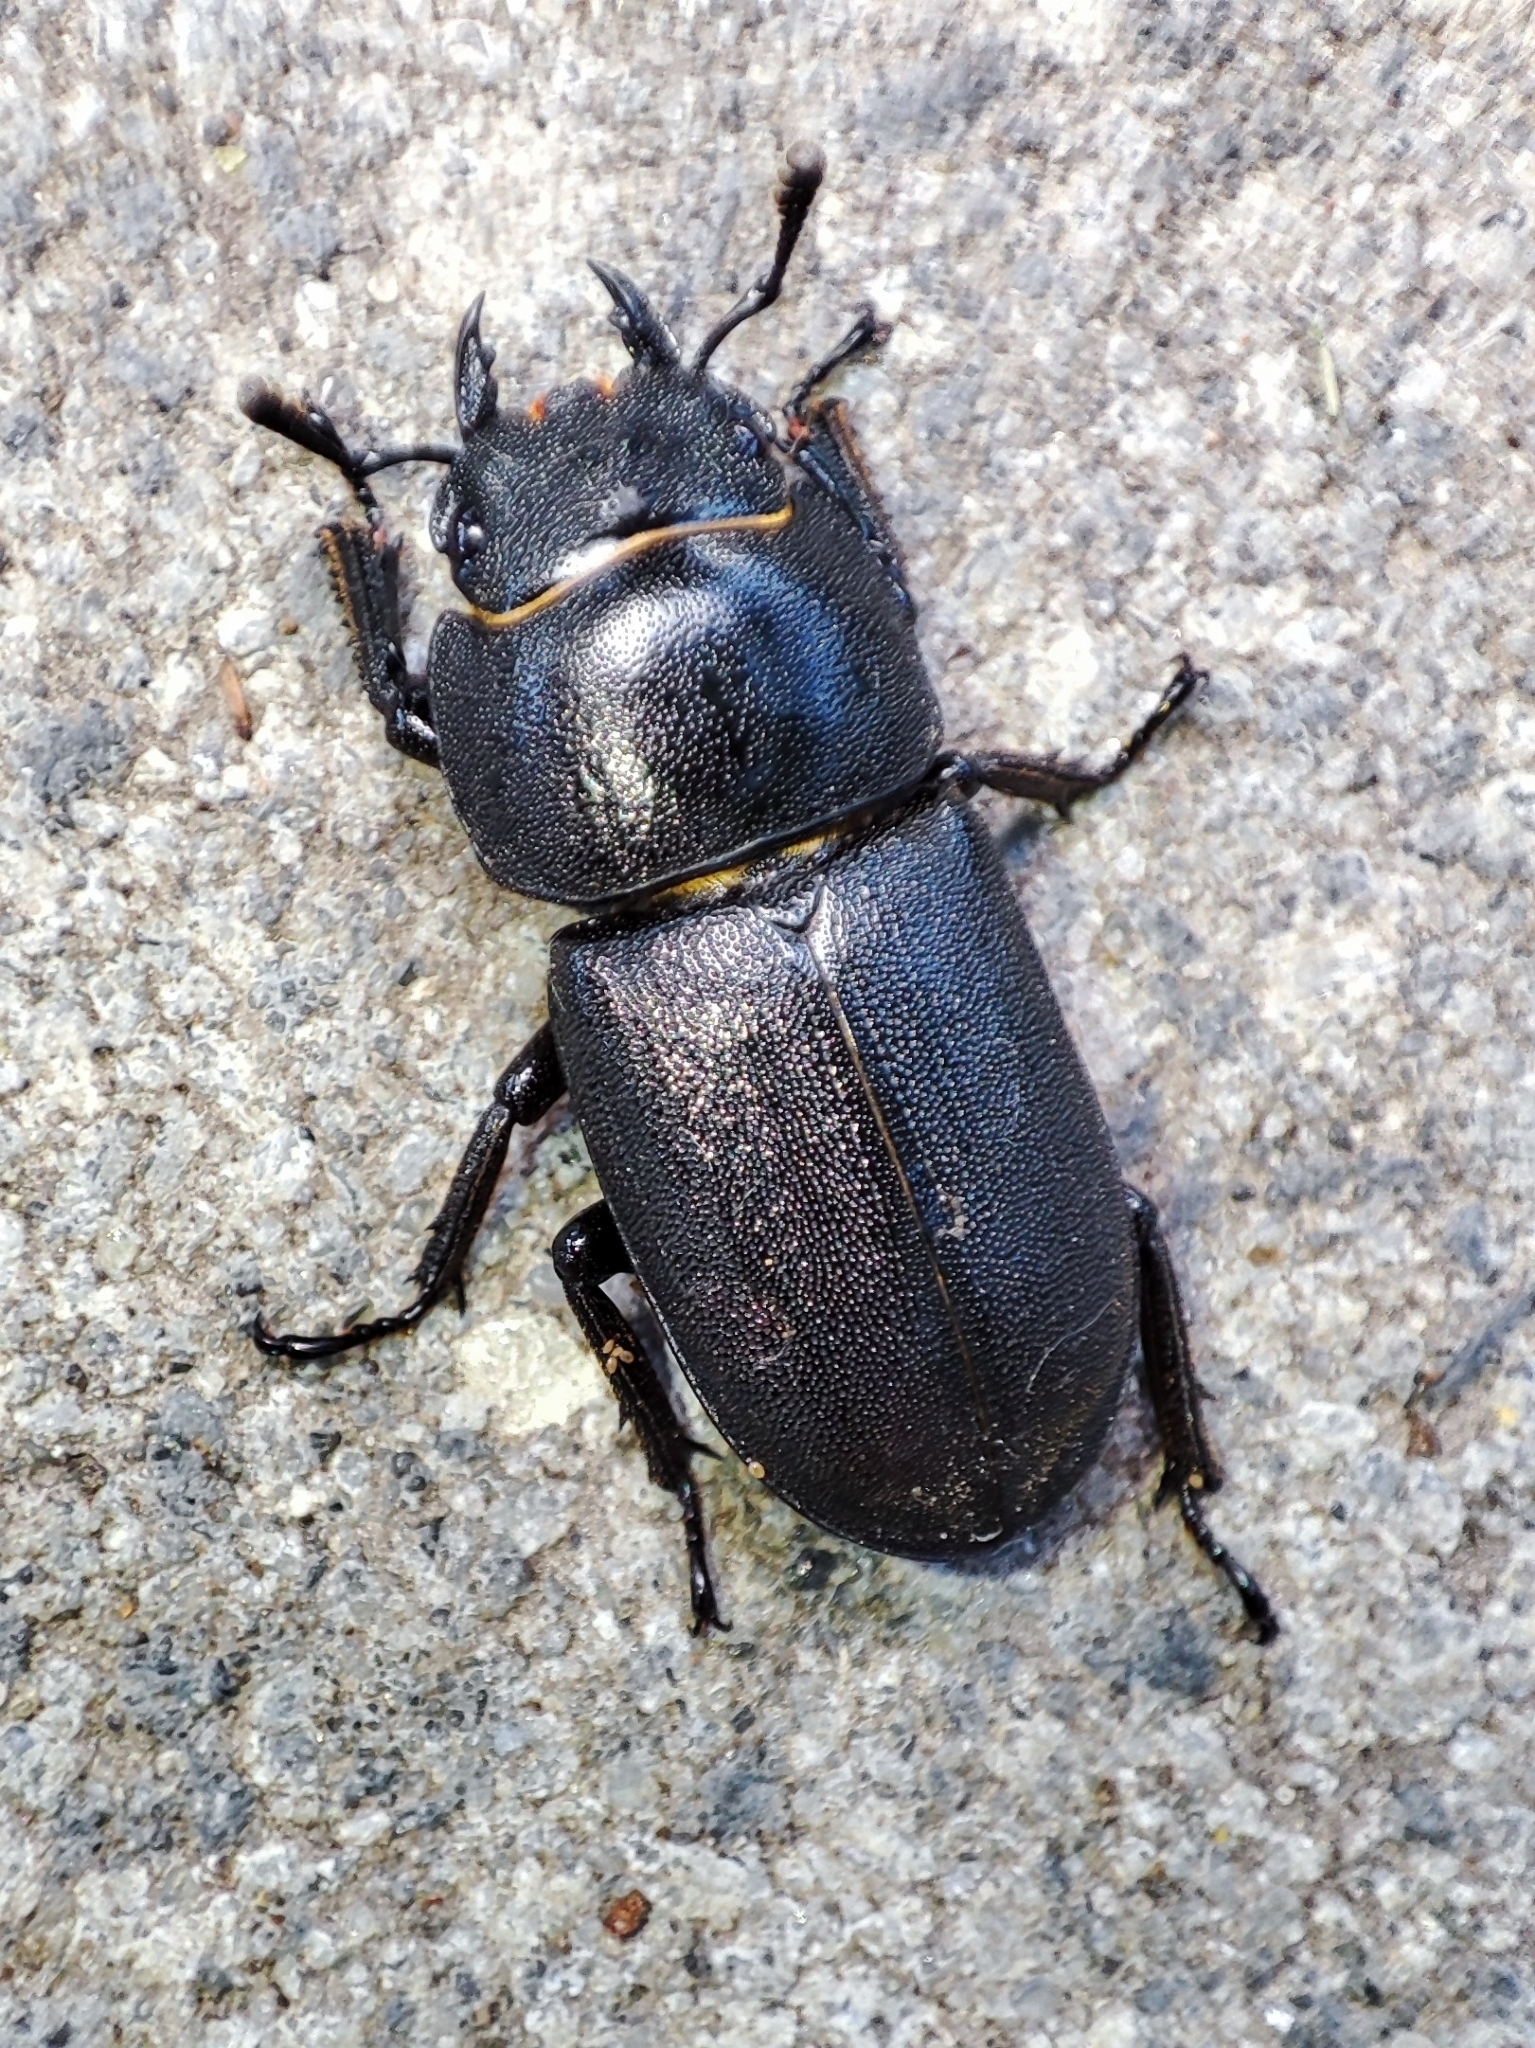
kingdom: Animalia
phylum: Arthropoda
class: Insecta
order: Coleoptera
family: Lucanidae
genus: Dorcus
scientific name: Dorcus parallelipipedus
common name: Lesser stag beetle
